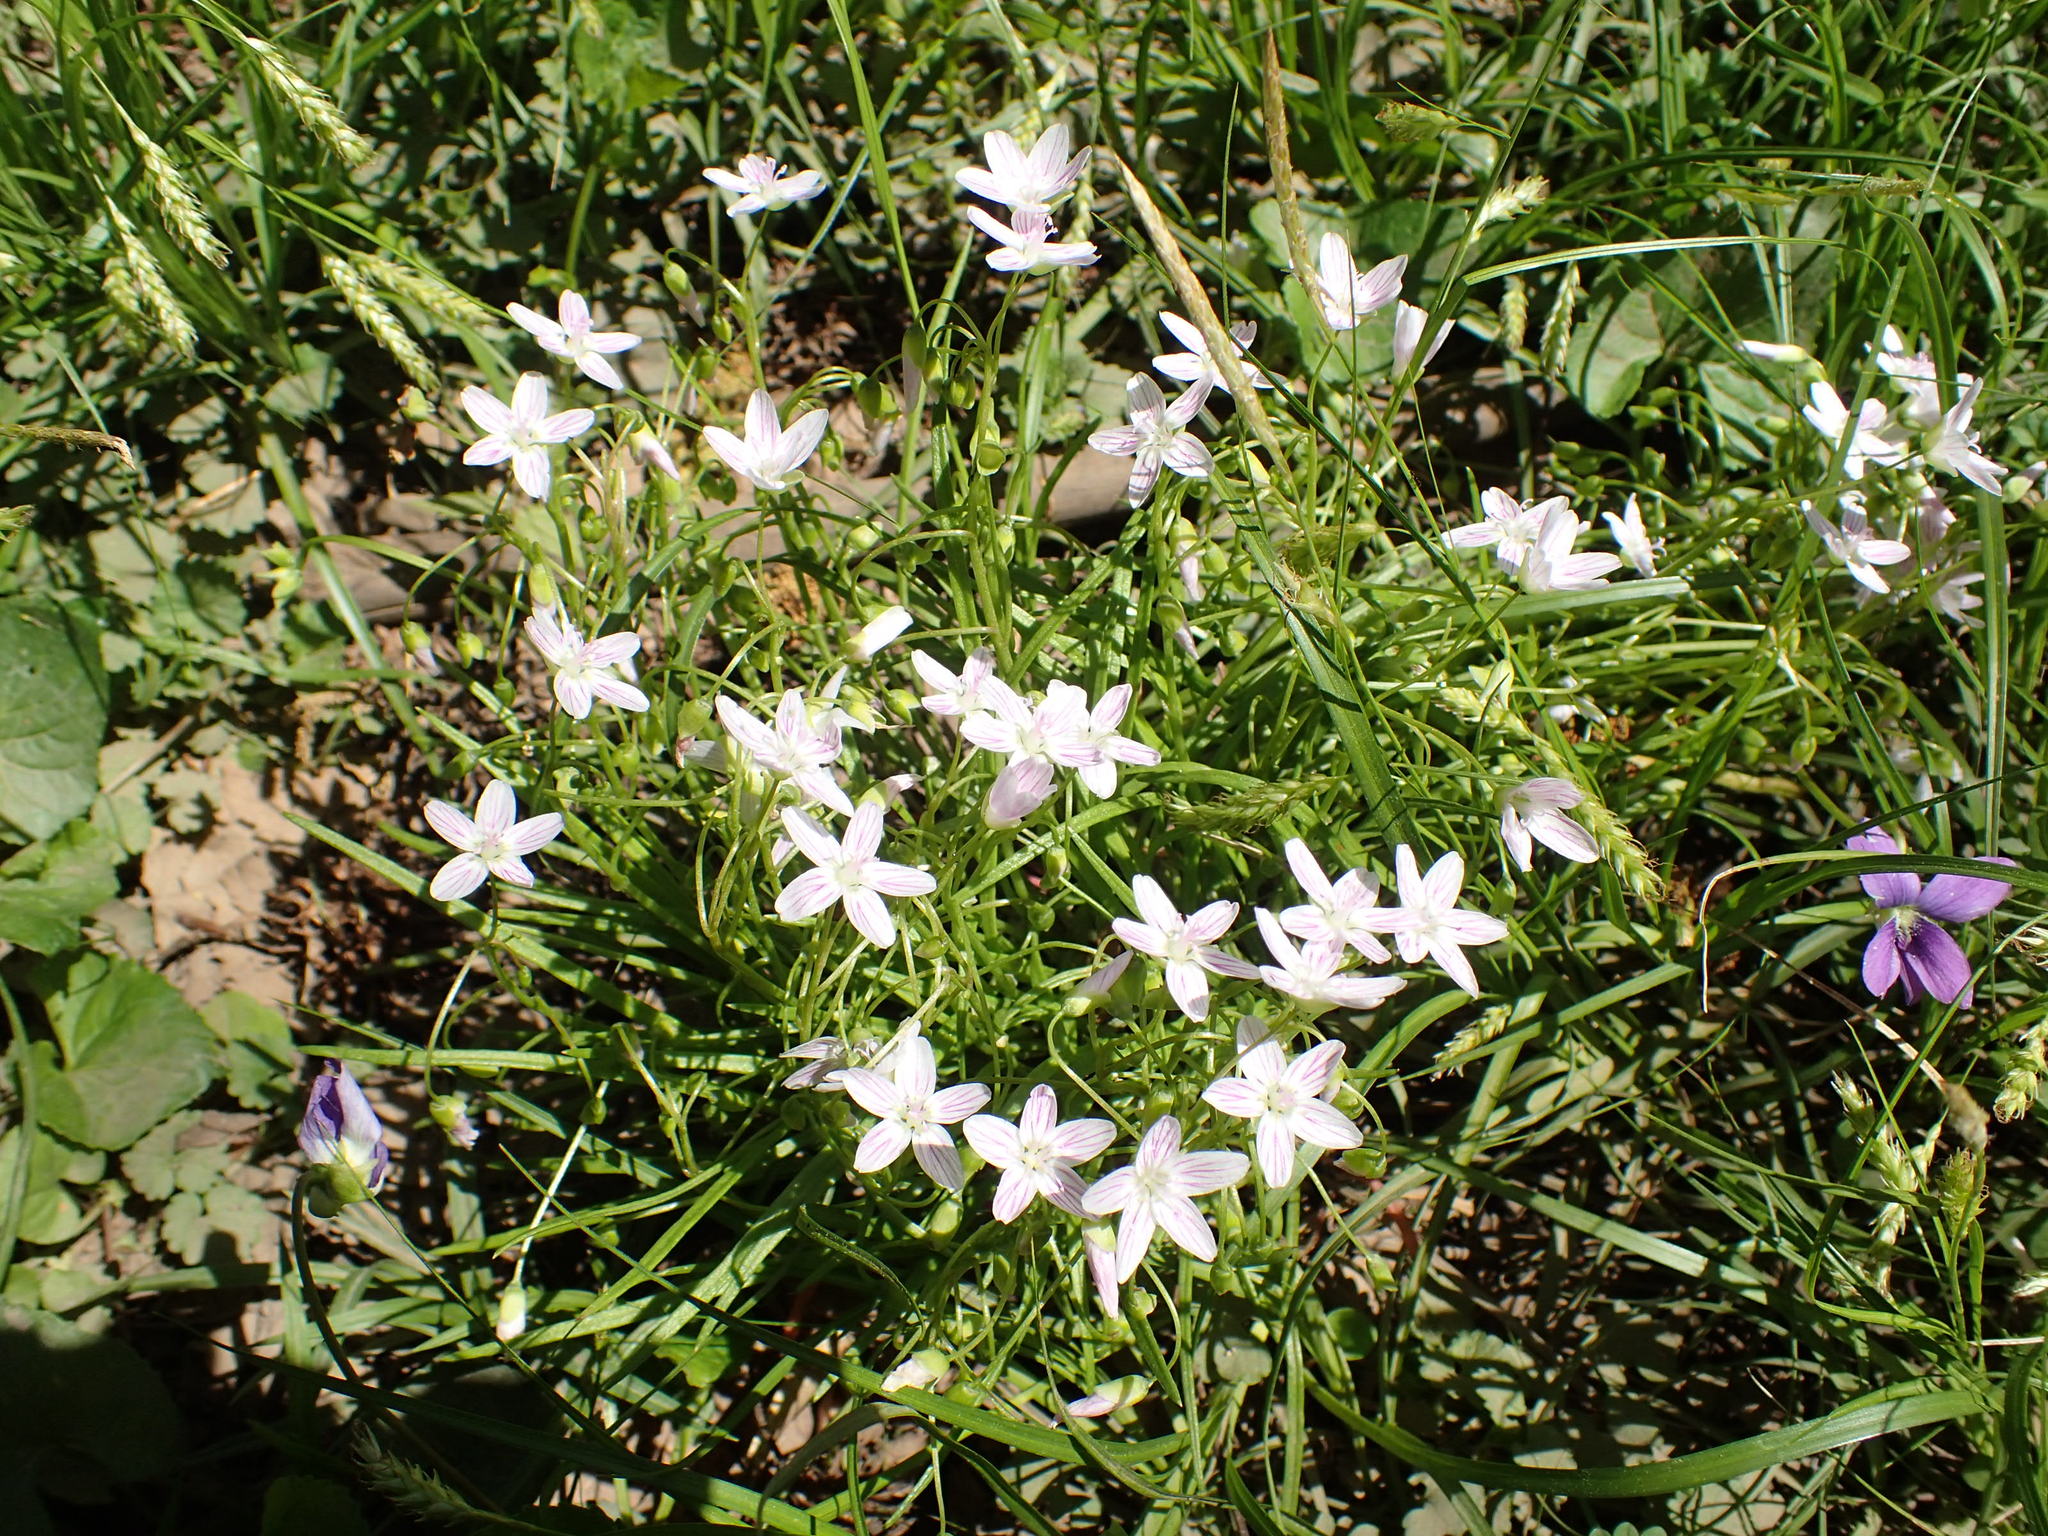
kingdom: Plantae
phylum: Tracheophyta
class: Magnoliopsida
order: Caryophyllales
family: Montiaceae
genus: Claytonia
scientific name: Claytonia virginica
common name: Virginia springbeauty
